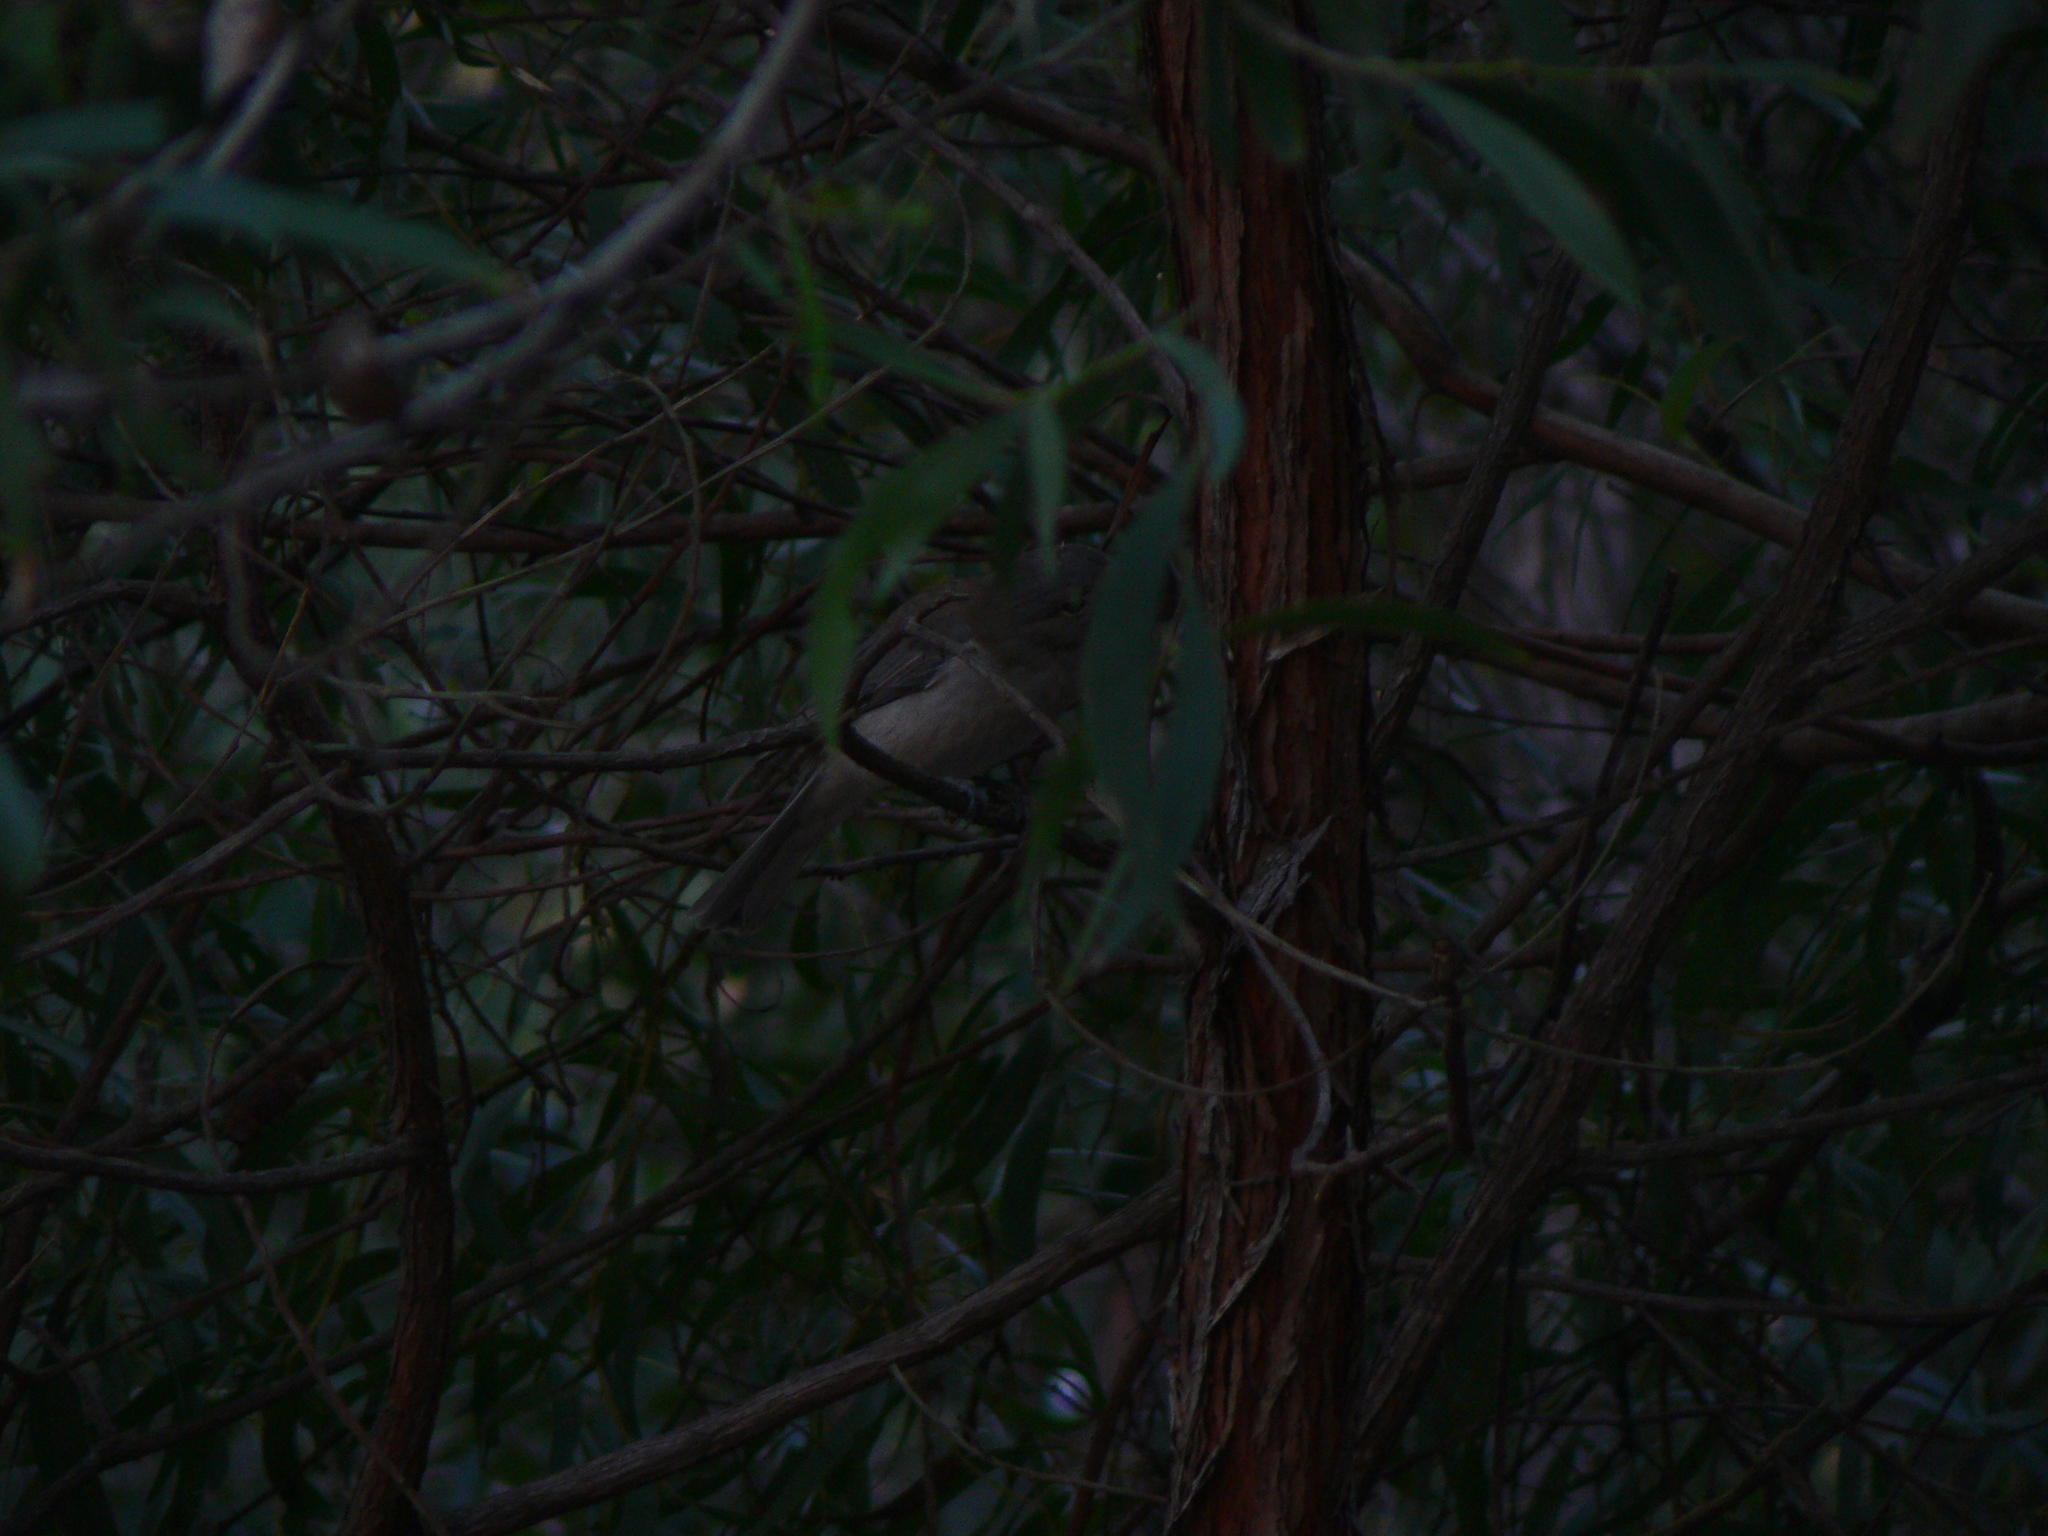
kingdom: Animalia
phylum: Chordata
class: Aves
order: Passeriformes
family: Pachycephalidae
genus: Colluricincla
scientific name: Colluricincla harmonica
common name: Grey shrikethrush
